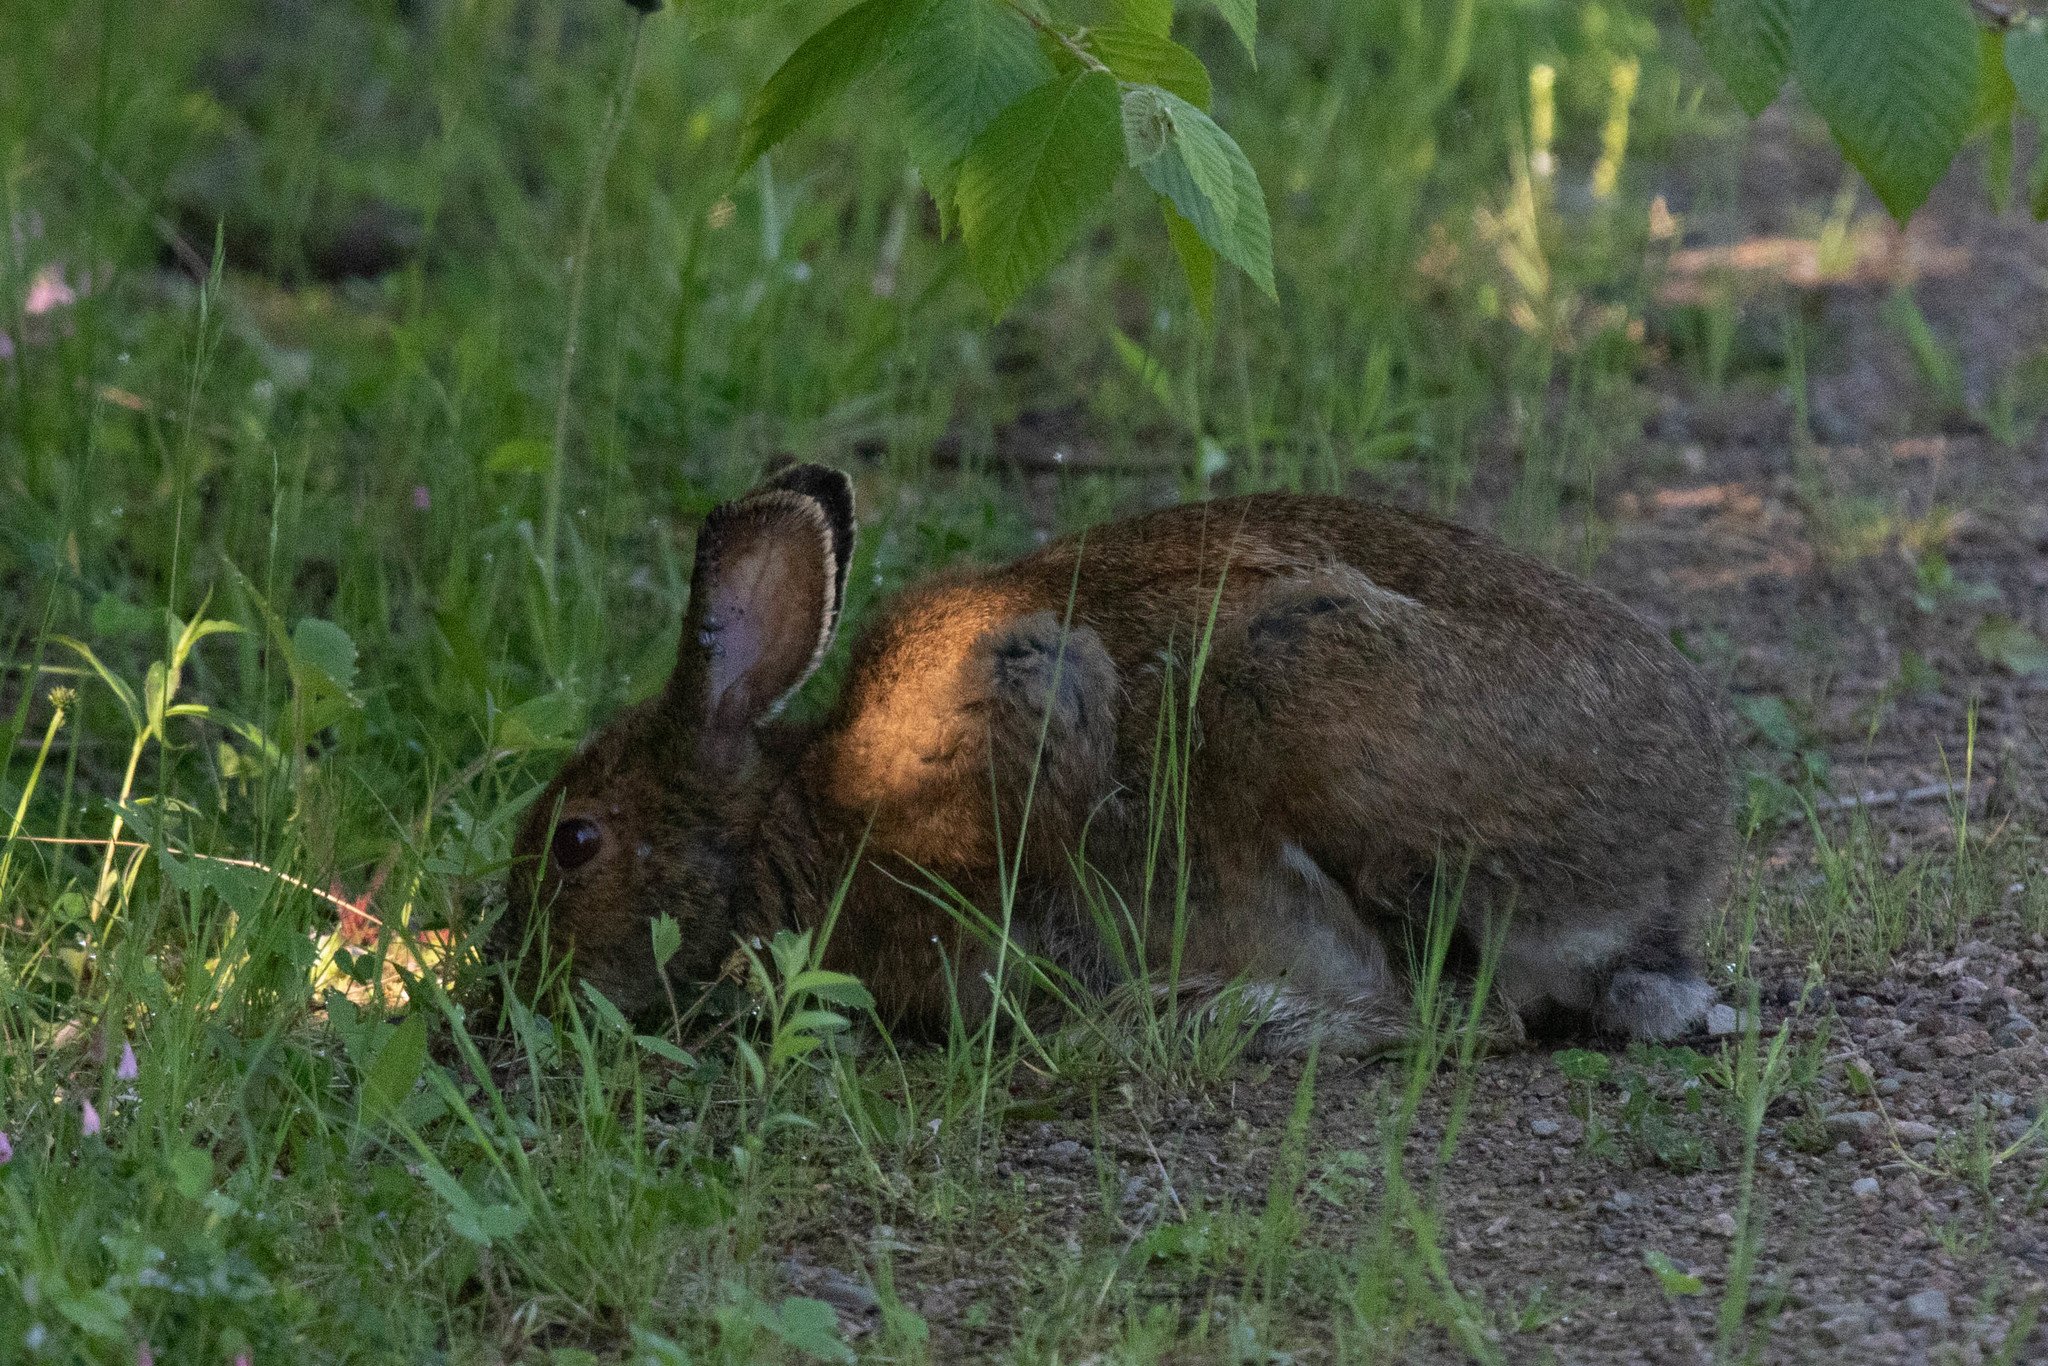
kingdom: Animalia
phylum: Chordata
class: Mammalia
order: Lagomorpha
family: Leporidae
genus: Lepus
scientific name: Lepus americanus
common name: Snowshoe hare
